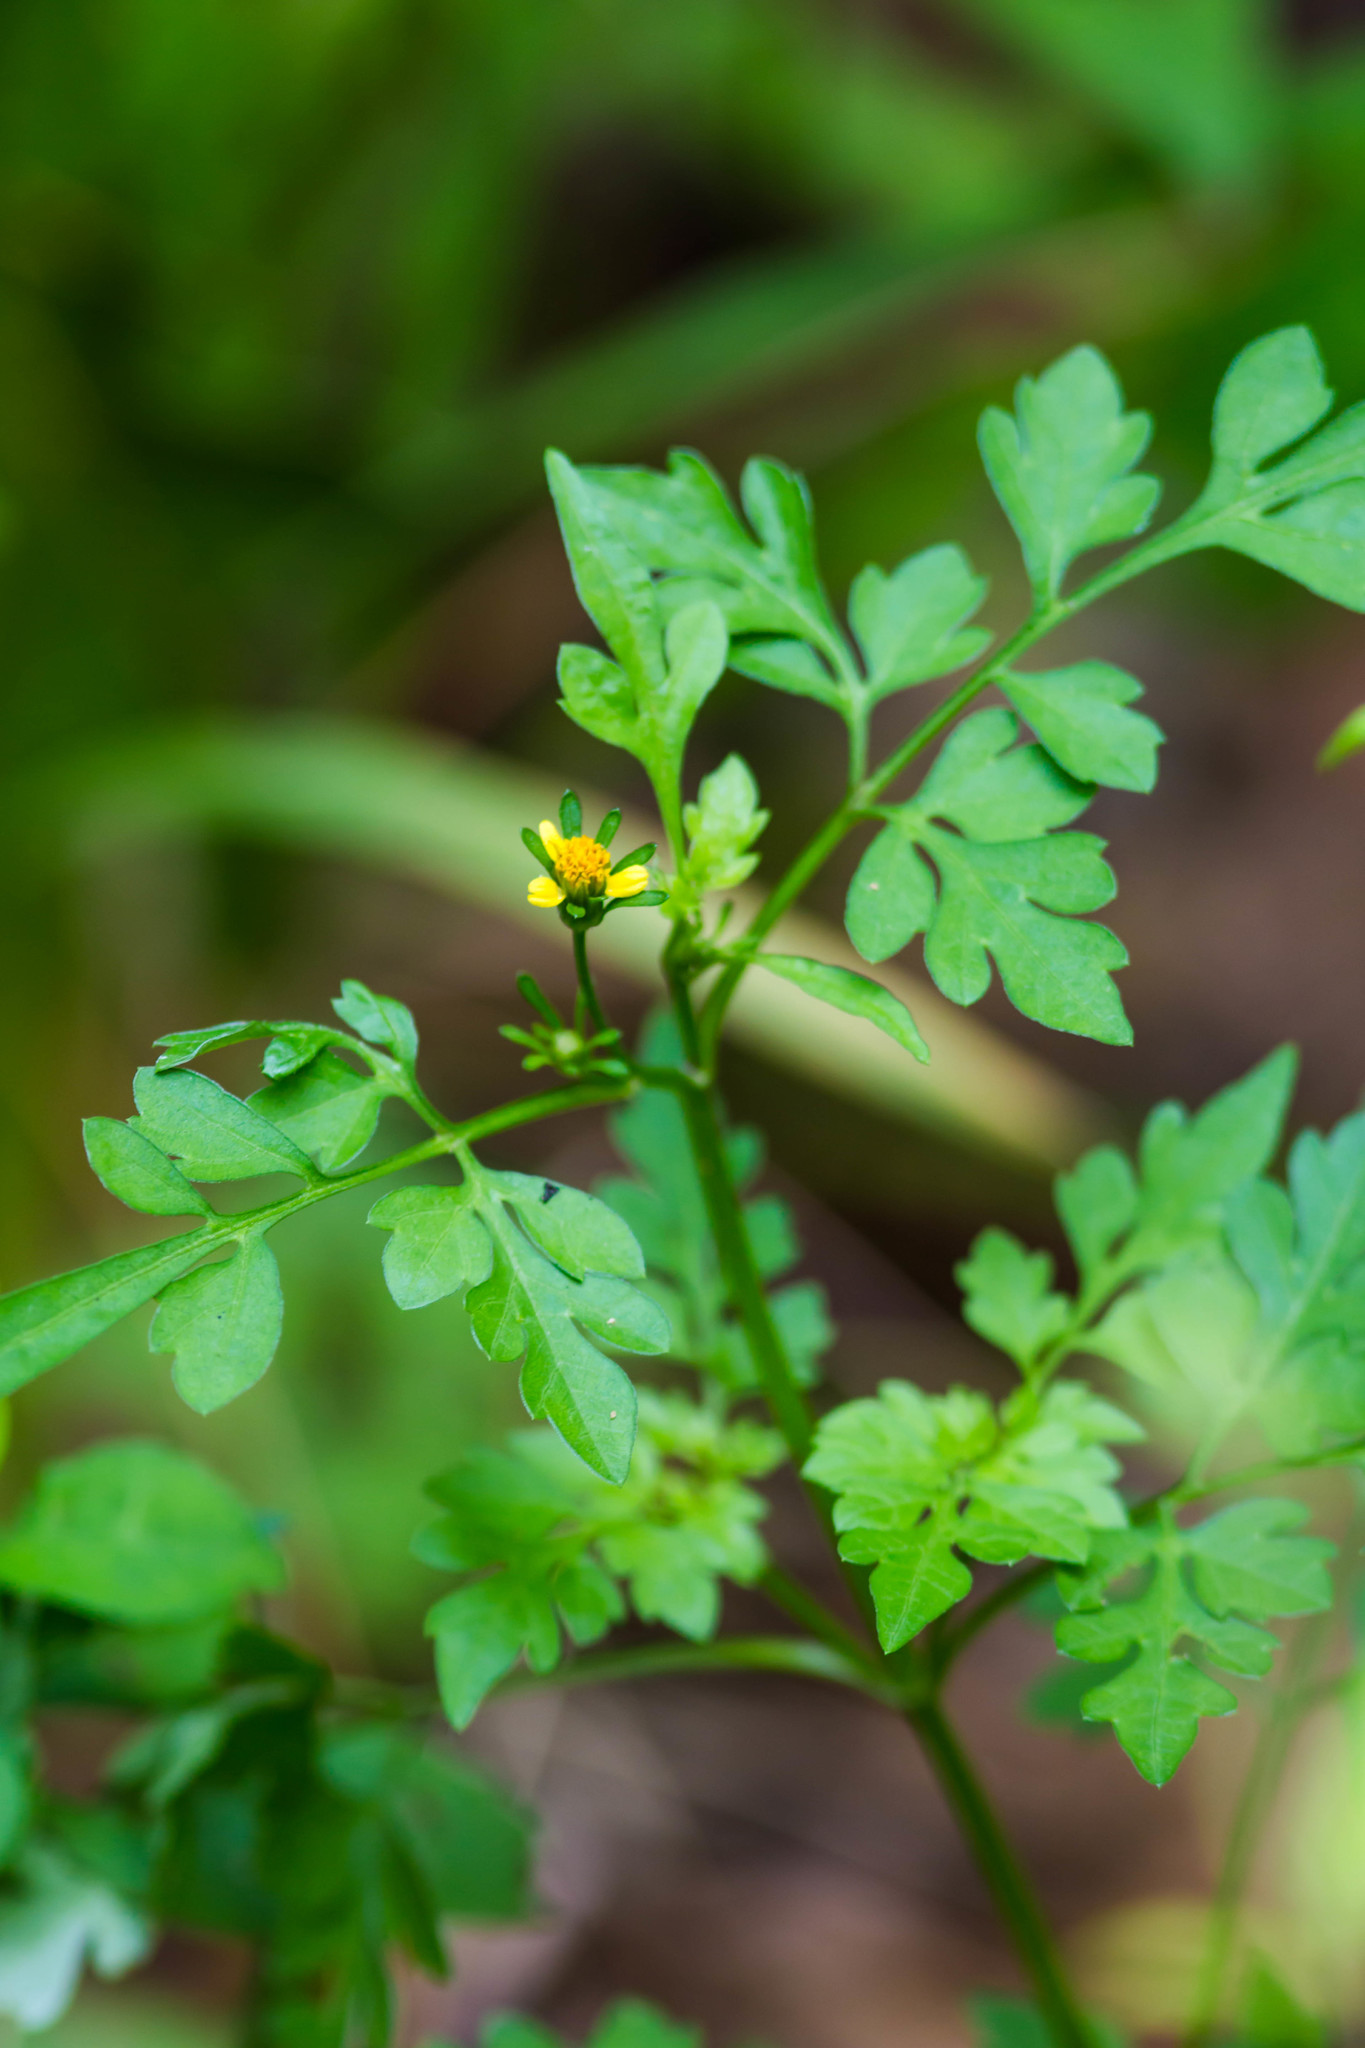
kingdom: Plantae
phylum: Tracheophyta
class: Magnoliopsida
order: Asterales
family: Asteraceae
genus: Bidens
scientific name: Bidens bipinnata
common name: Spanish-needles
